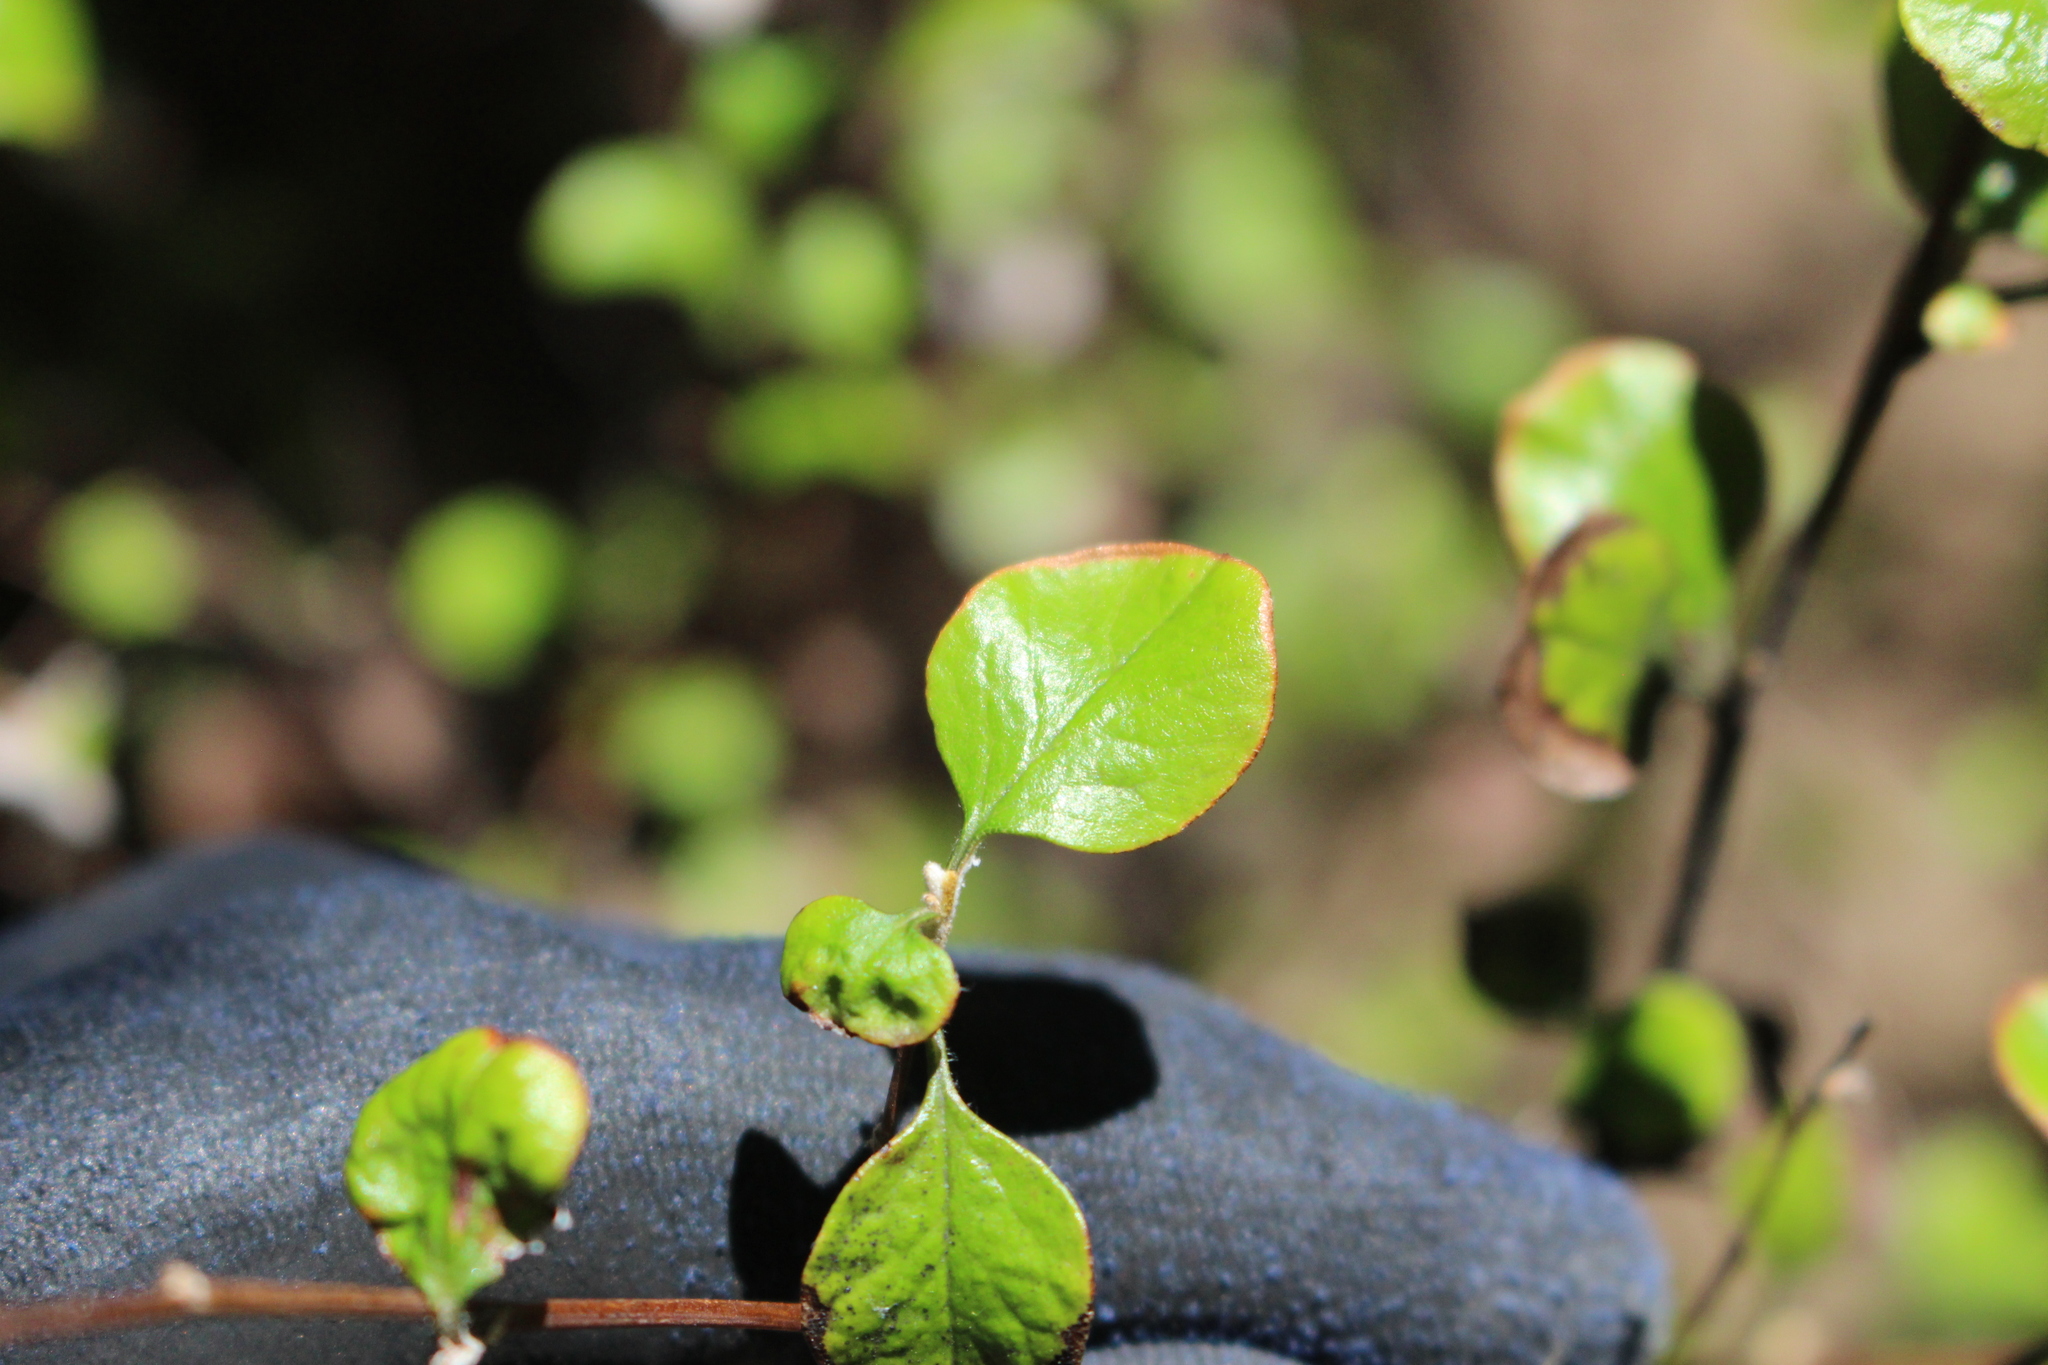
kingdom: Plantae
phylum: Tracheophyta
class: Magnoliopsida
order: Asterales
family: Asteraceae
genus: Ozothamnus
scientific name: Ozothamnus glomeratus
